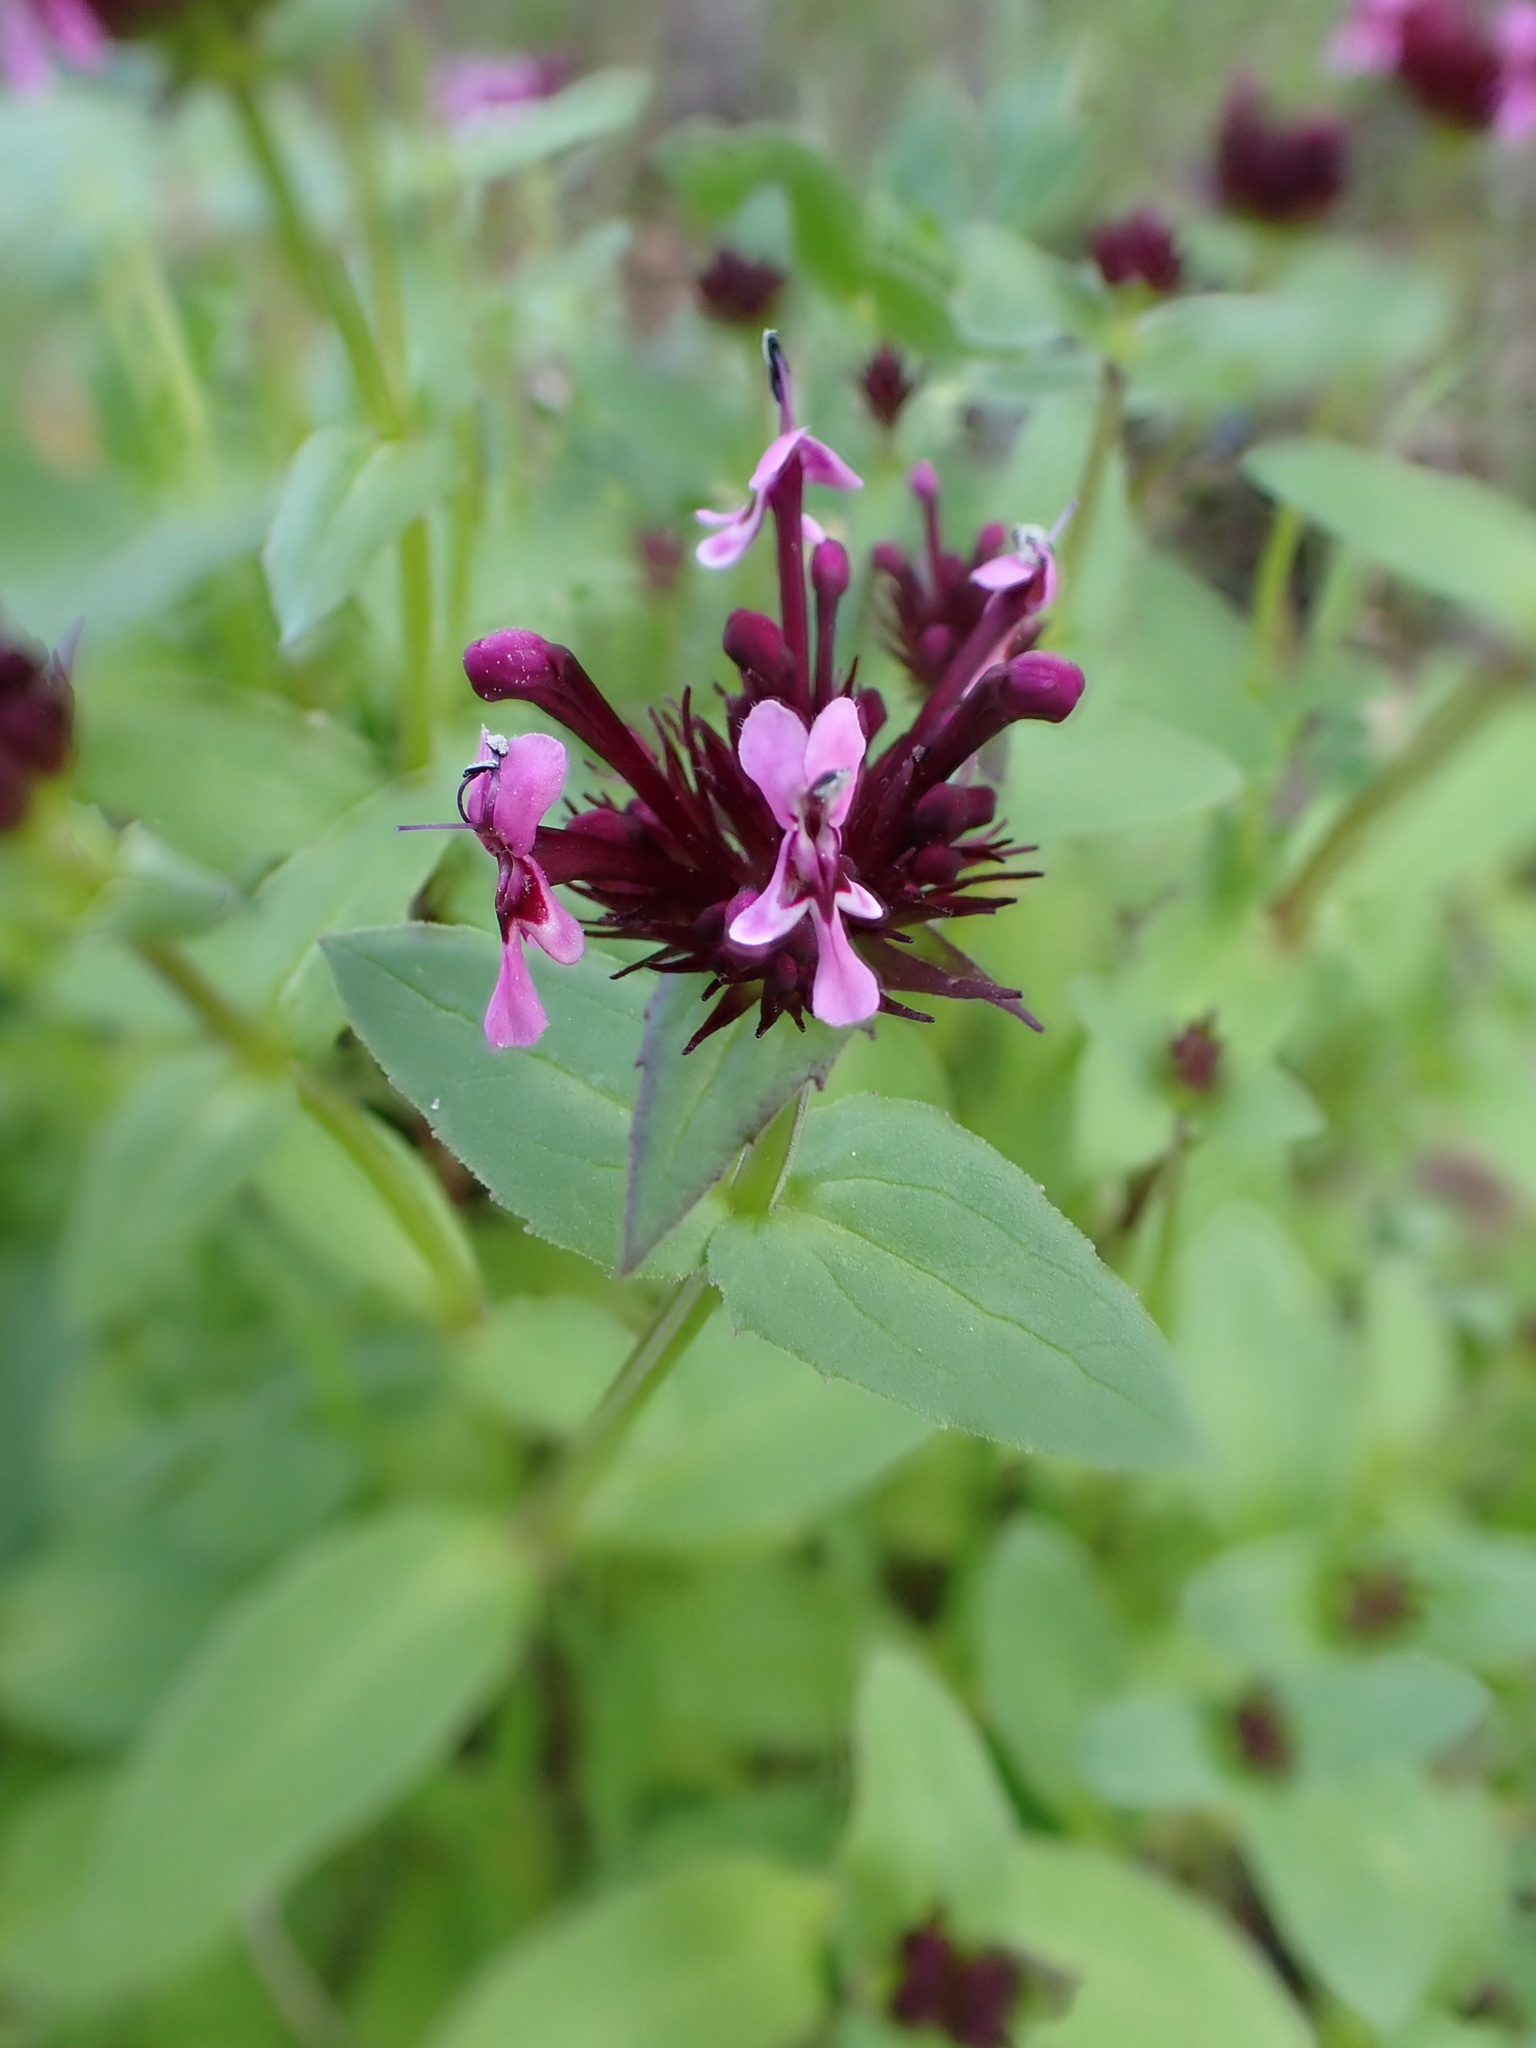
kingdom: Plantae
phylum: Tracheophyta
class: Magnoliopsida
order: Dipsacales
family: Caprifoliaceae
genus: Fedia
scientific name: Fedia cornucopiae
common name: Horn-of-plenty
